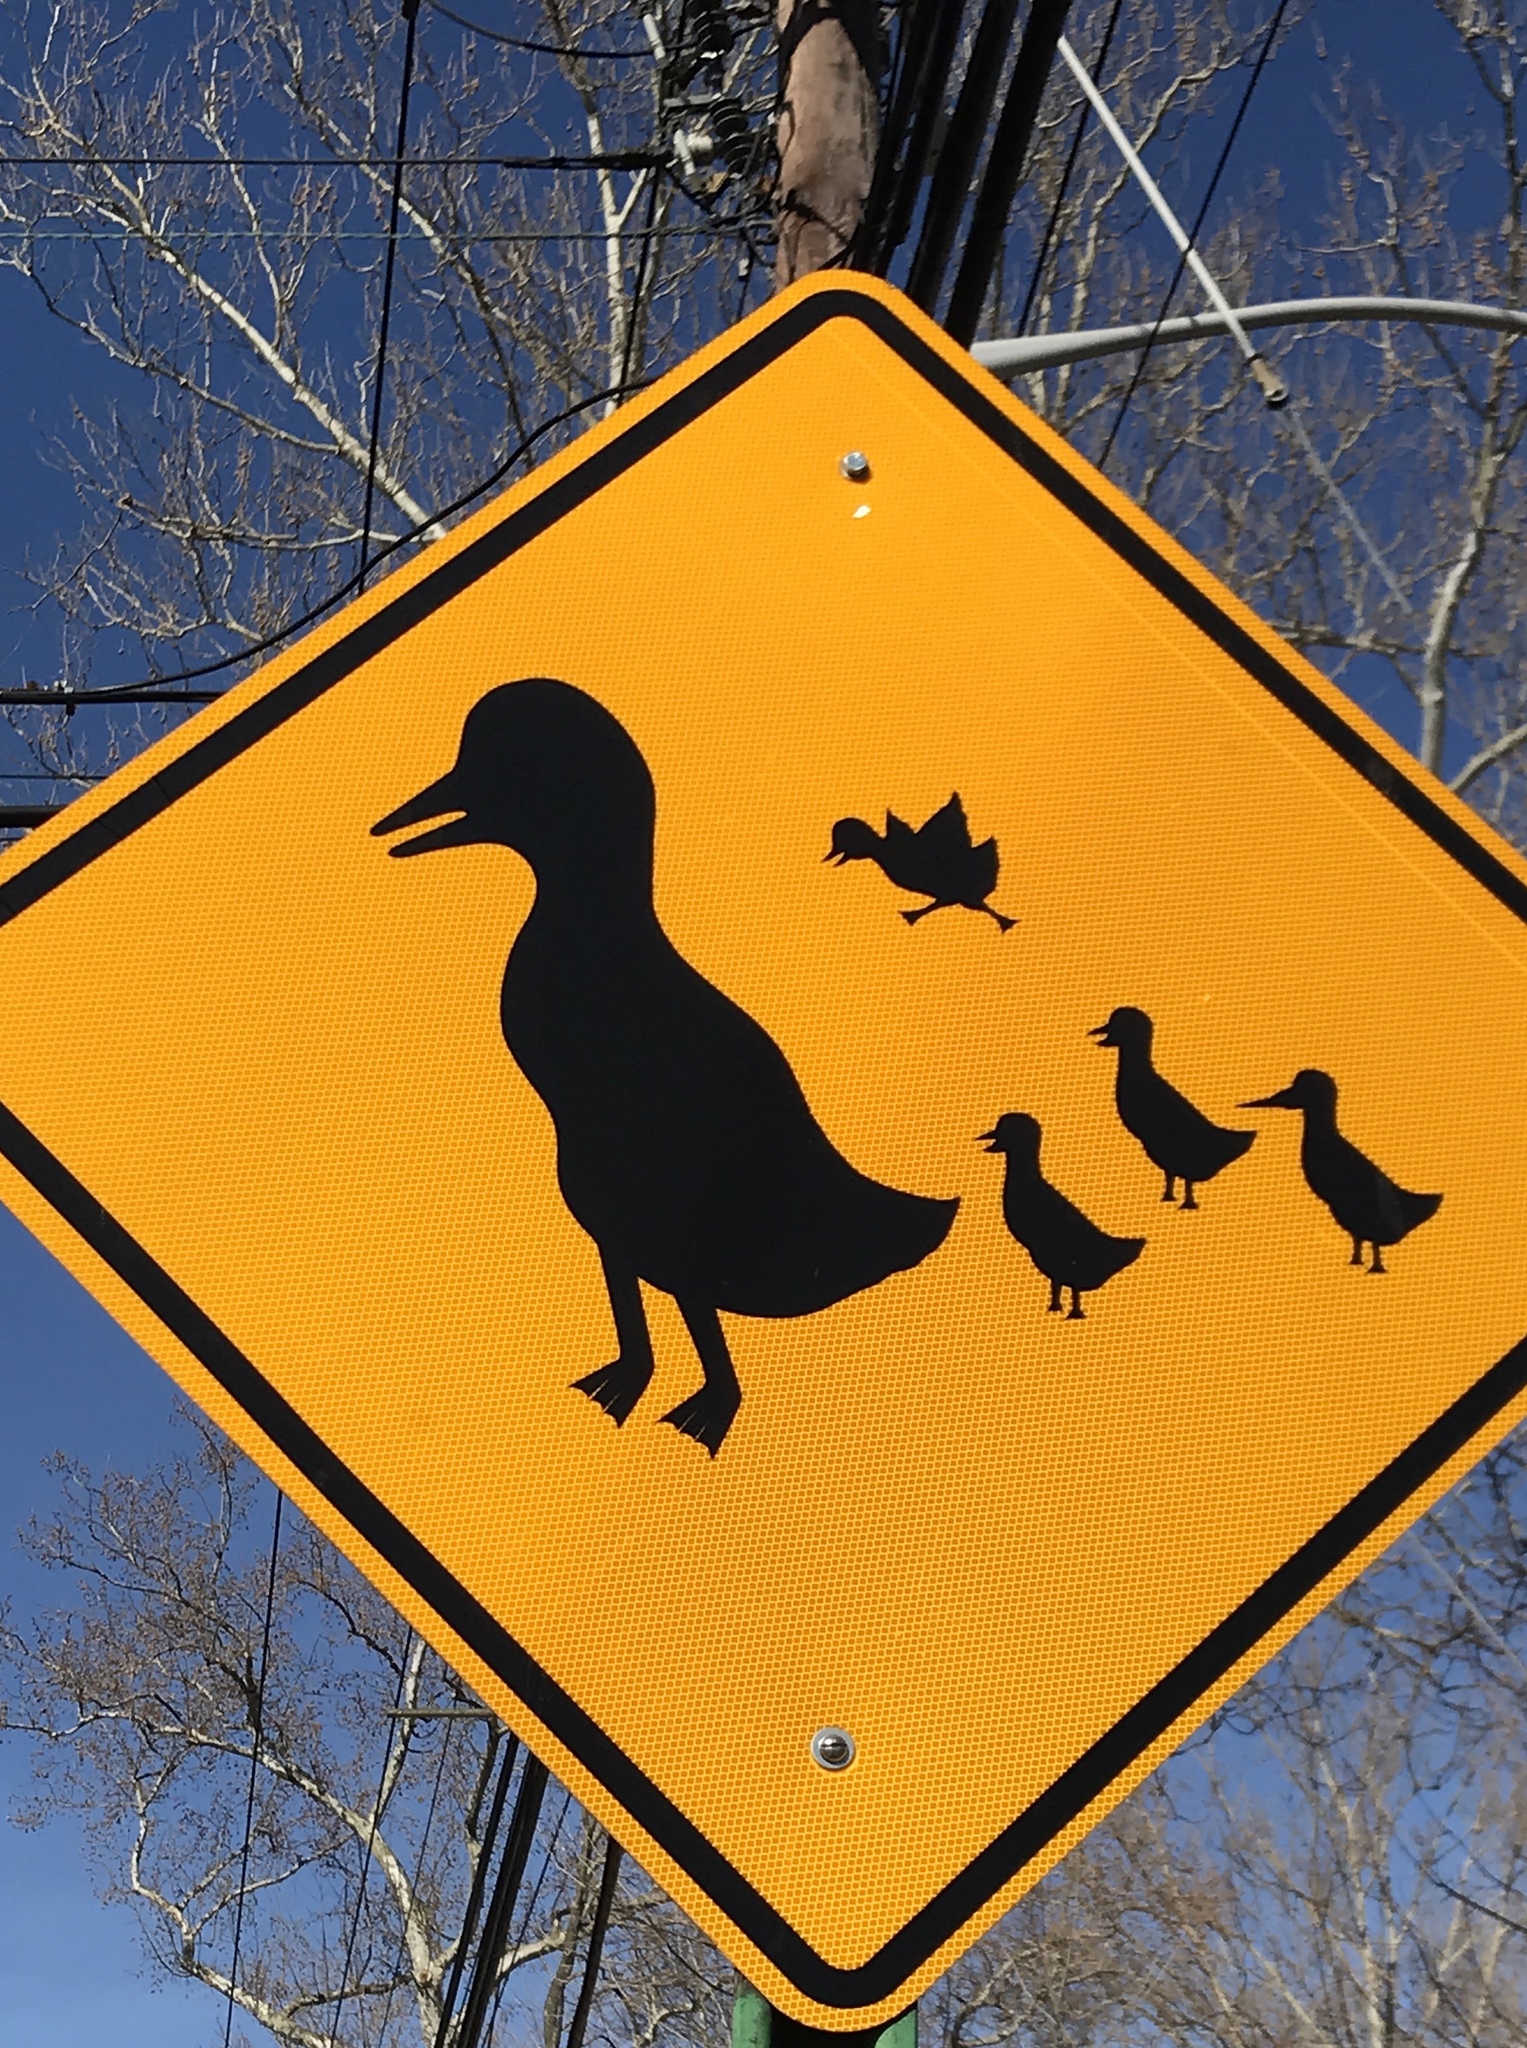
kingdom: Animalia
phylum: Chordata
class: Aves
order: Anseriformes
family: Anatidae
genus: Lophodytes
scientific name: Lophodytes cucullatus
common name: Hooded merganser
